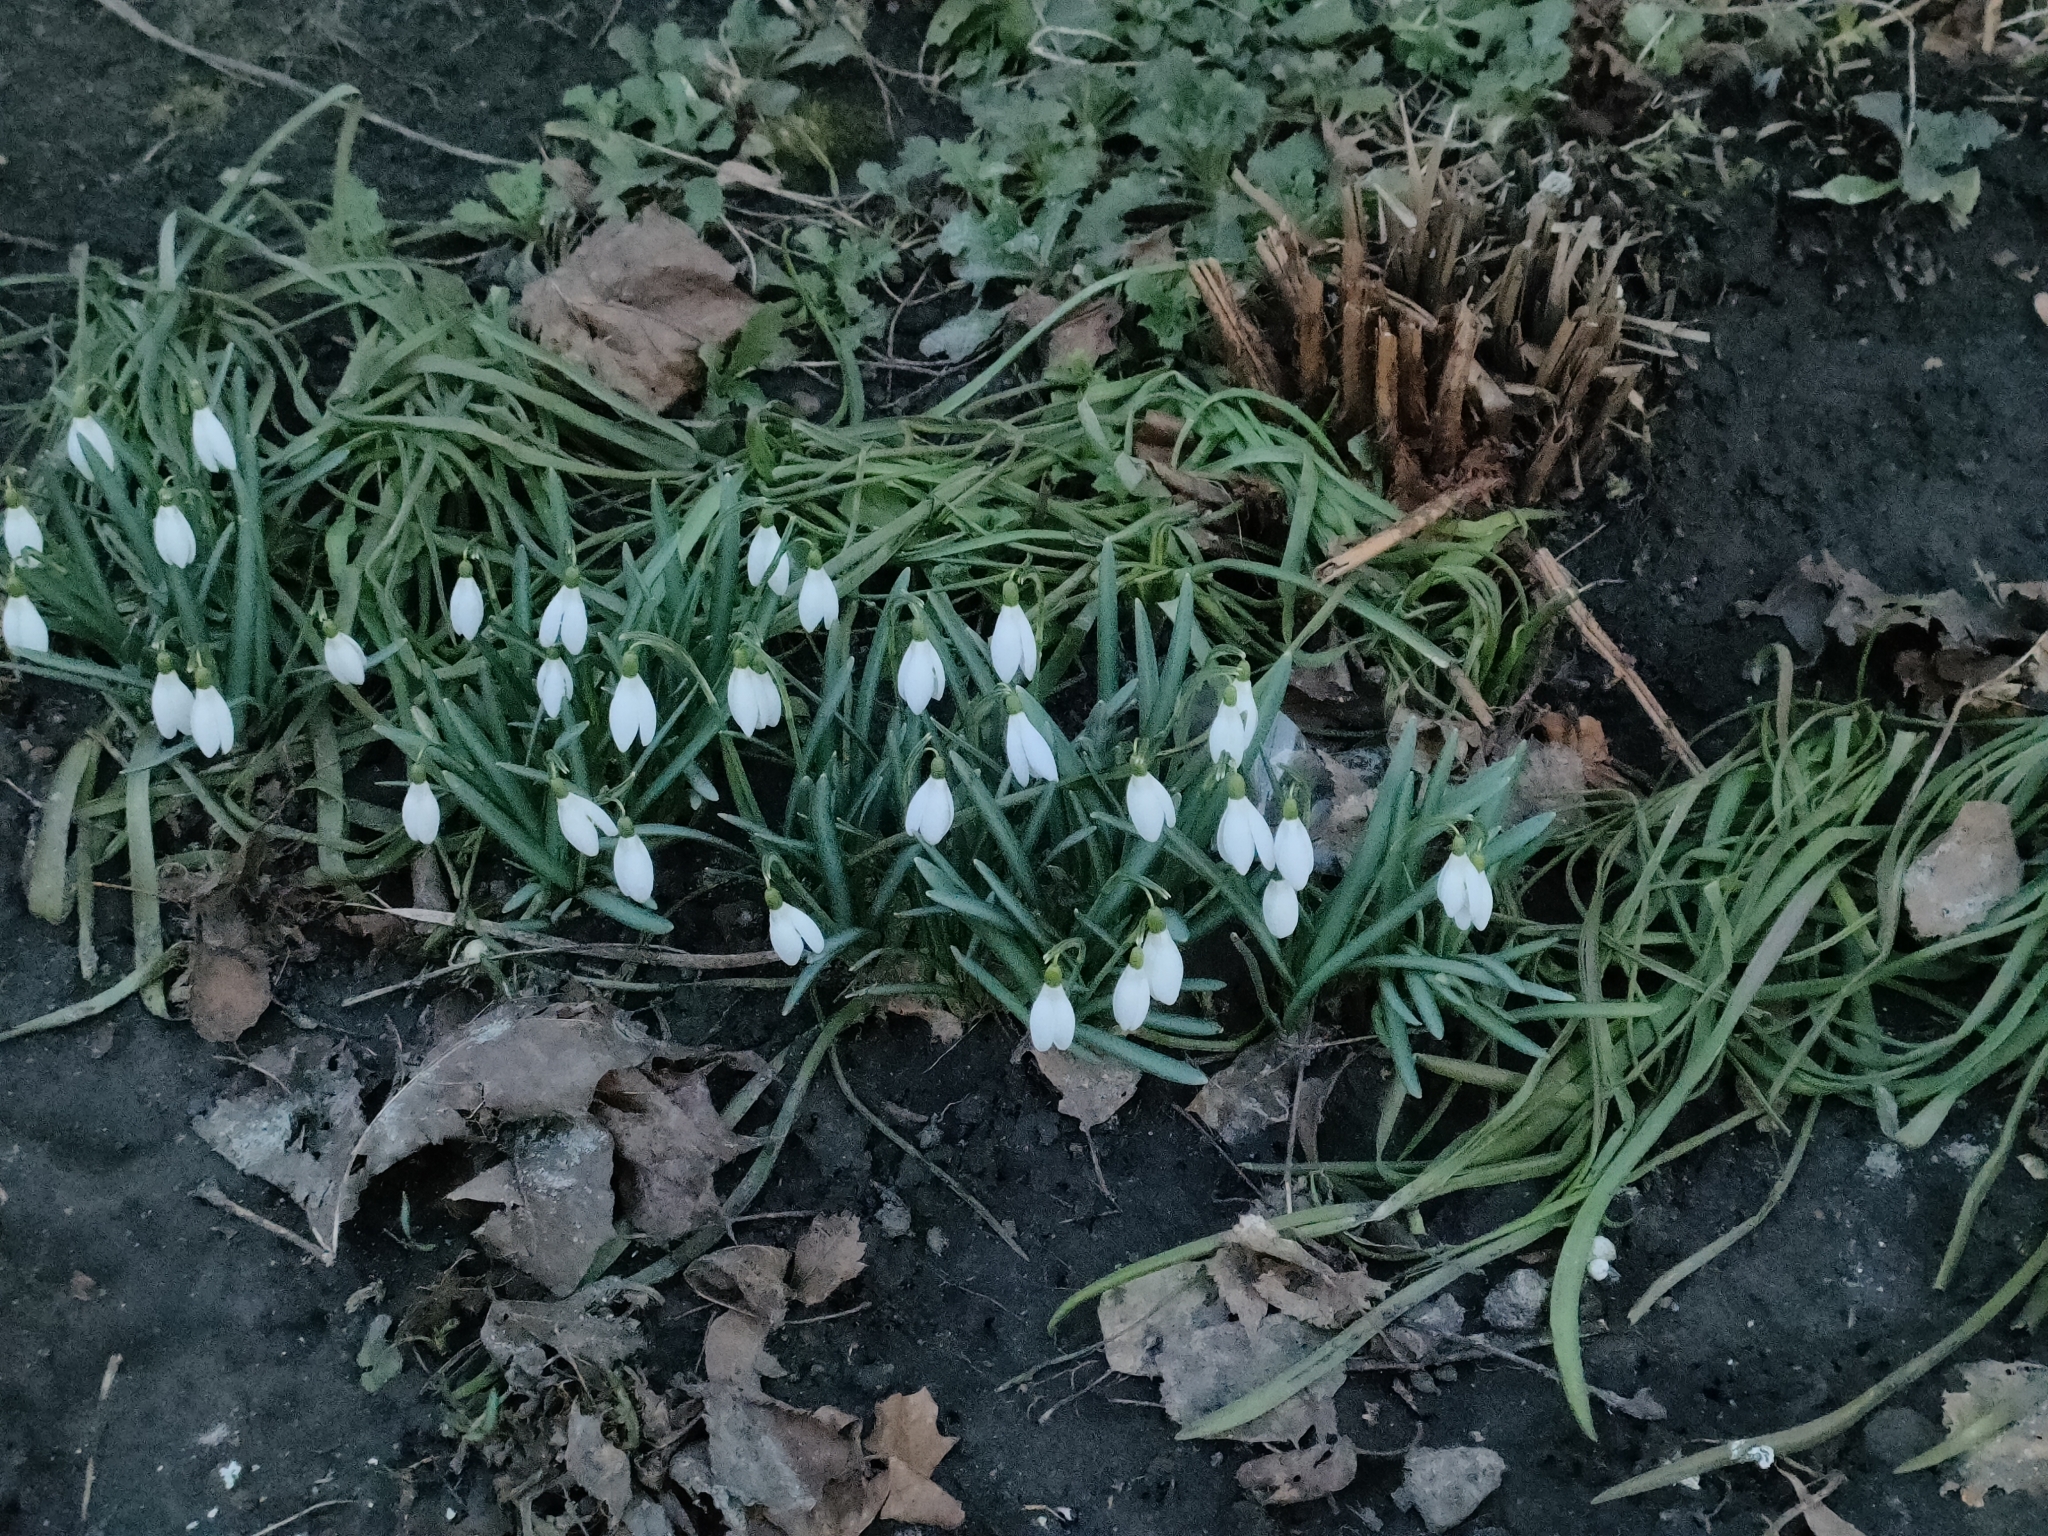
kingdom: Plantae
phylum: Tracheophyta
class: Liliopsida
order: Asparagales
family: Amaryllidaceae
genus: Galanthus
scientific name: Galanthus nivalis
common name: Snowdrop
